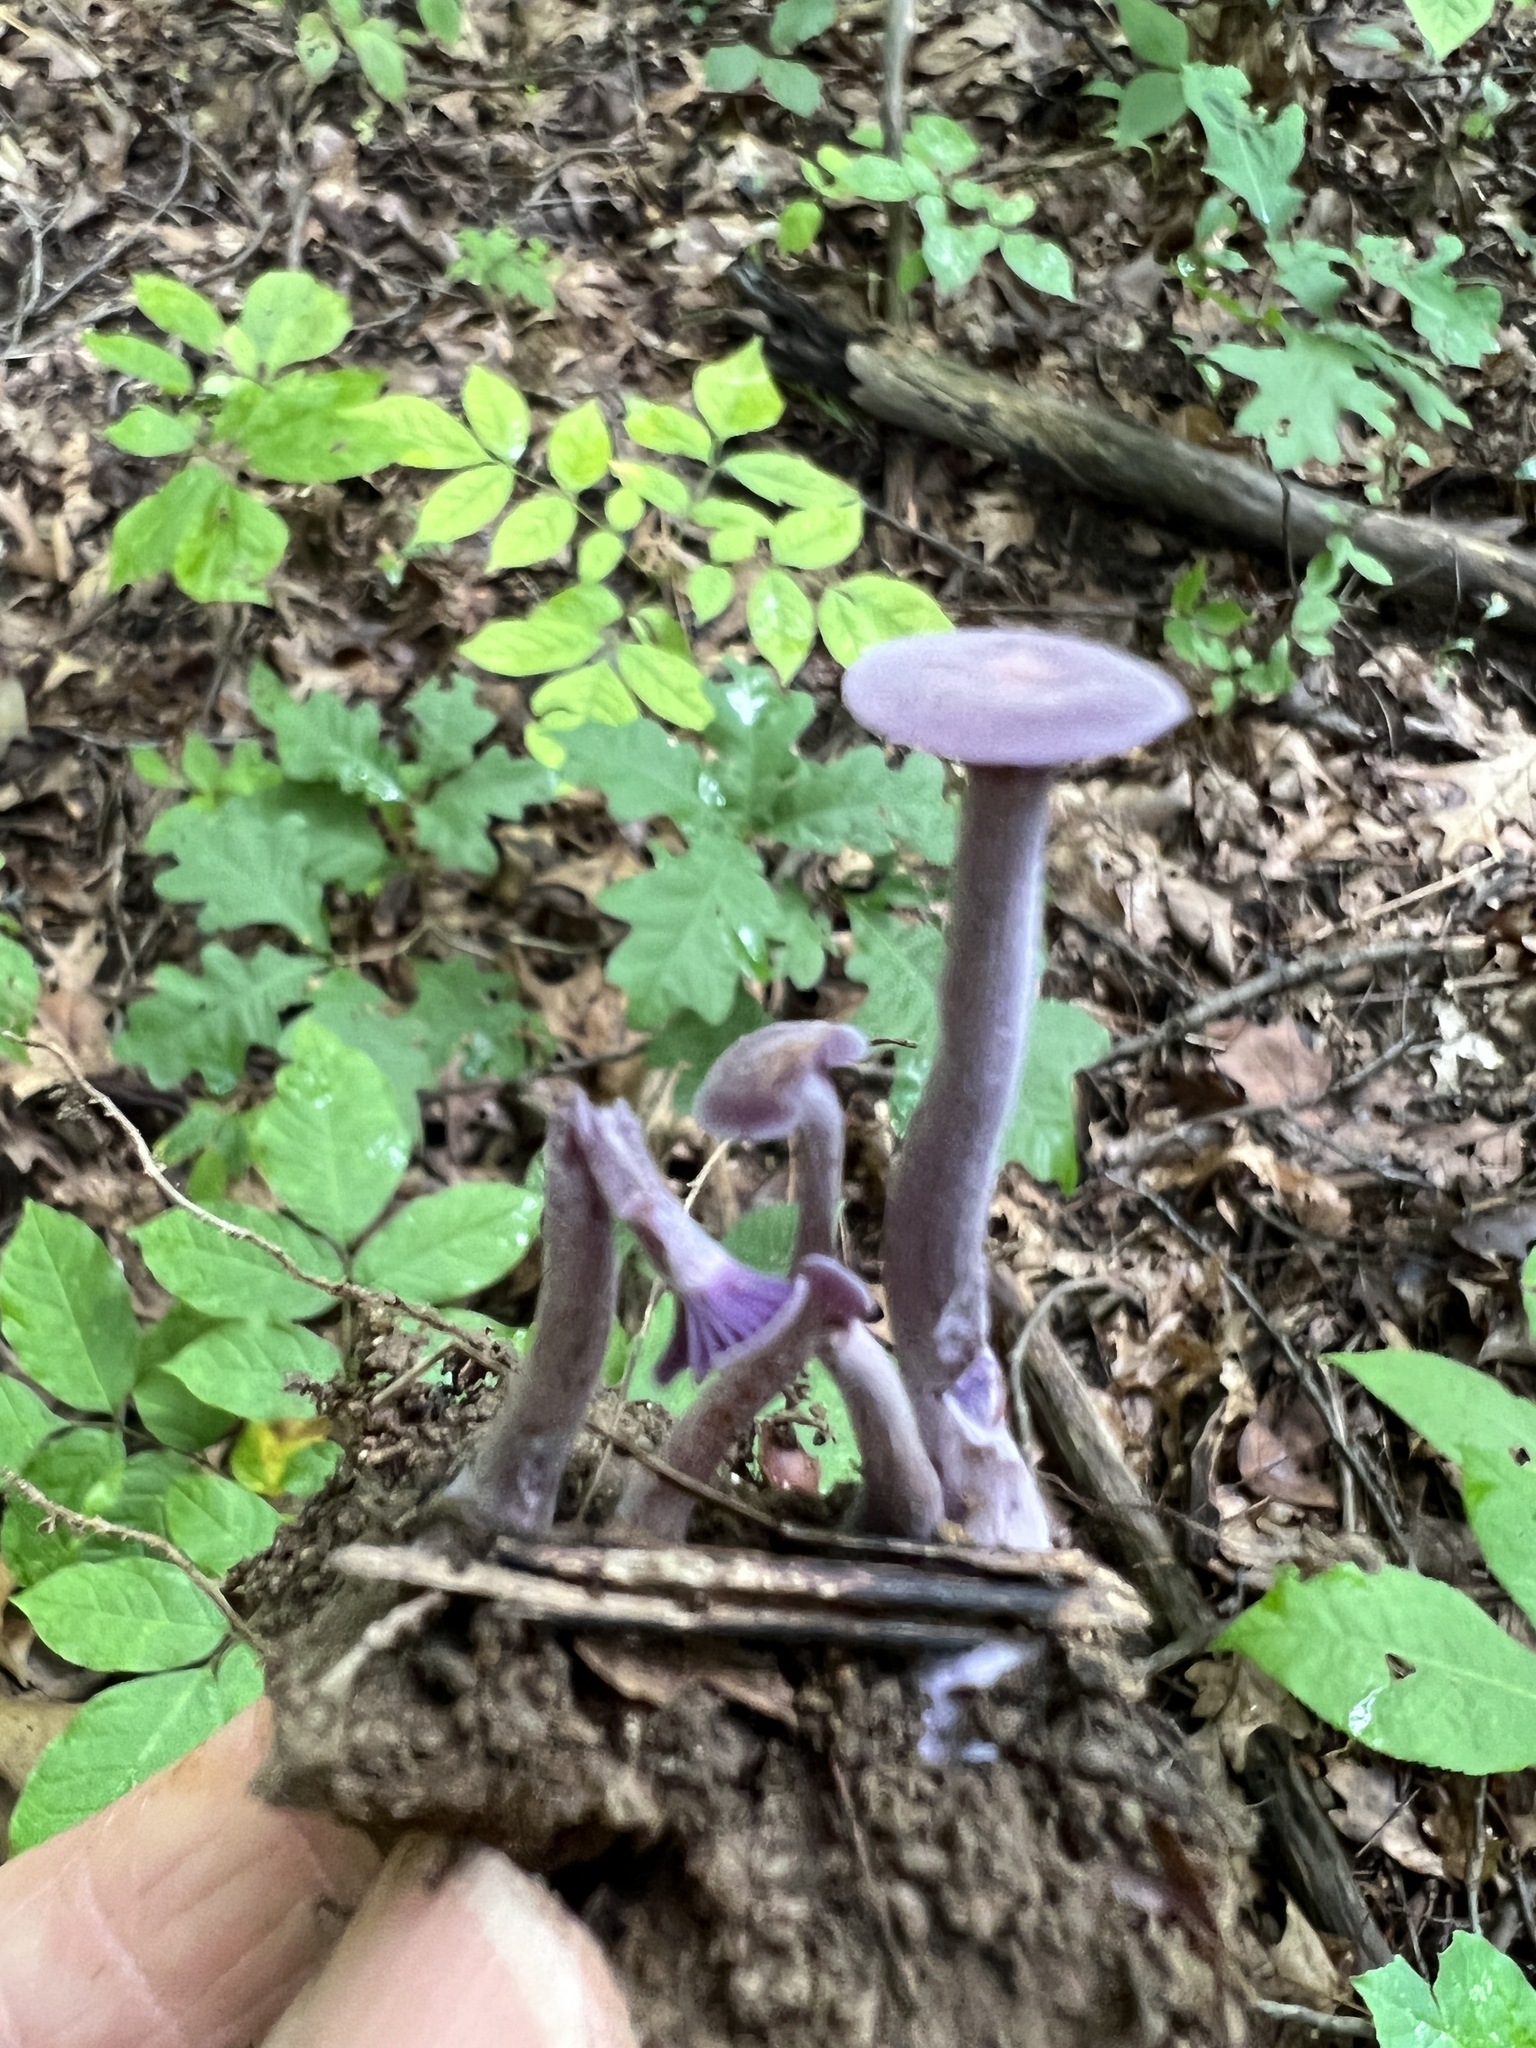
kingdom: Fungi
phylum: Basidiomycota
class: Agaricomycetes
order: Agaricales
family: Hydnangiaceae
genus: Laccaria
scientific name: Laccaria amethystina
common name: Amethyst deceiver
